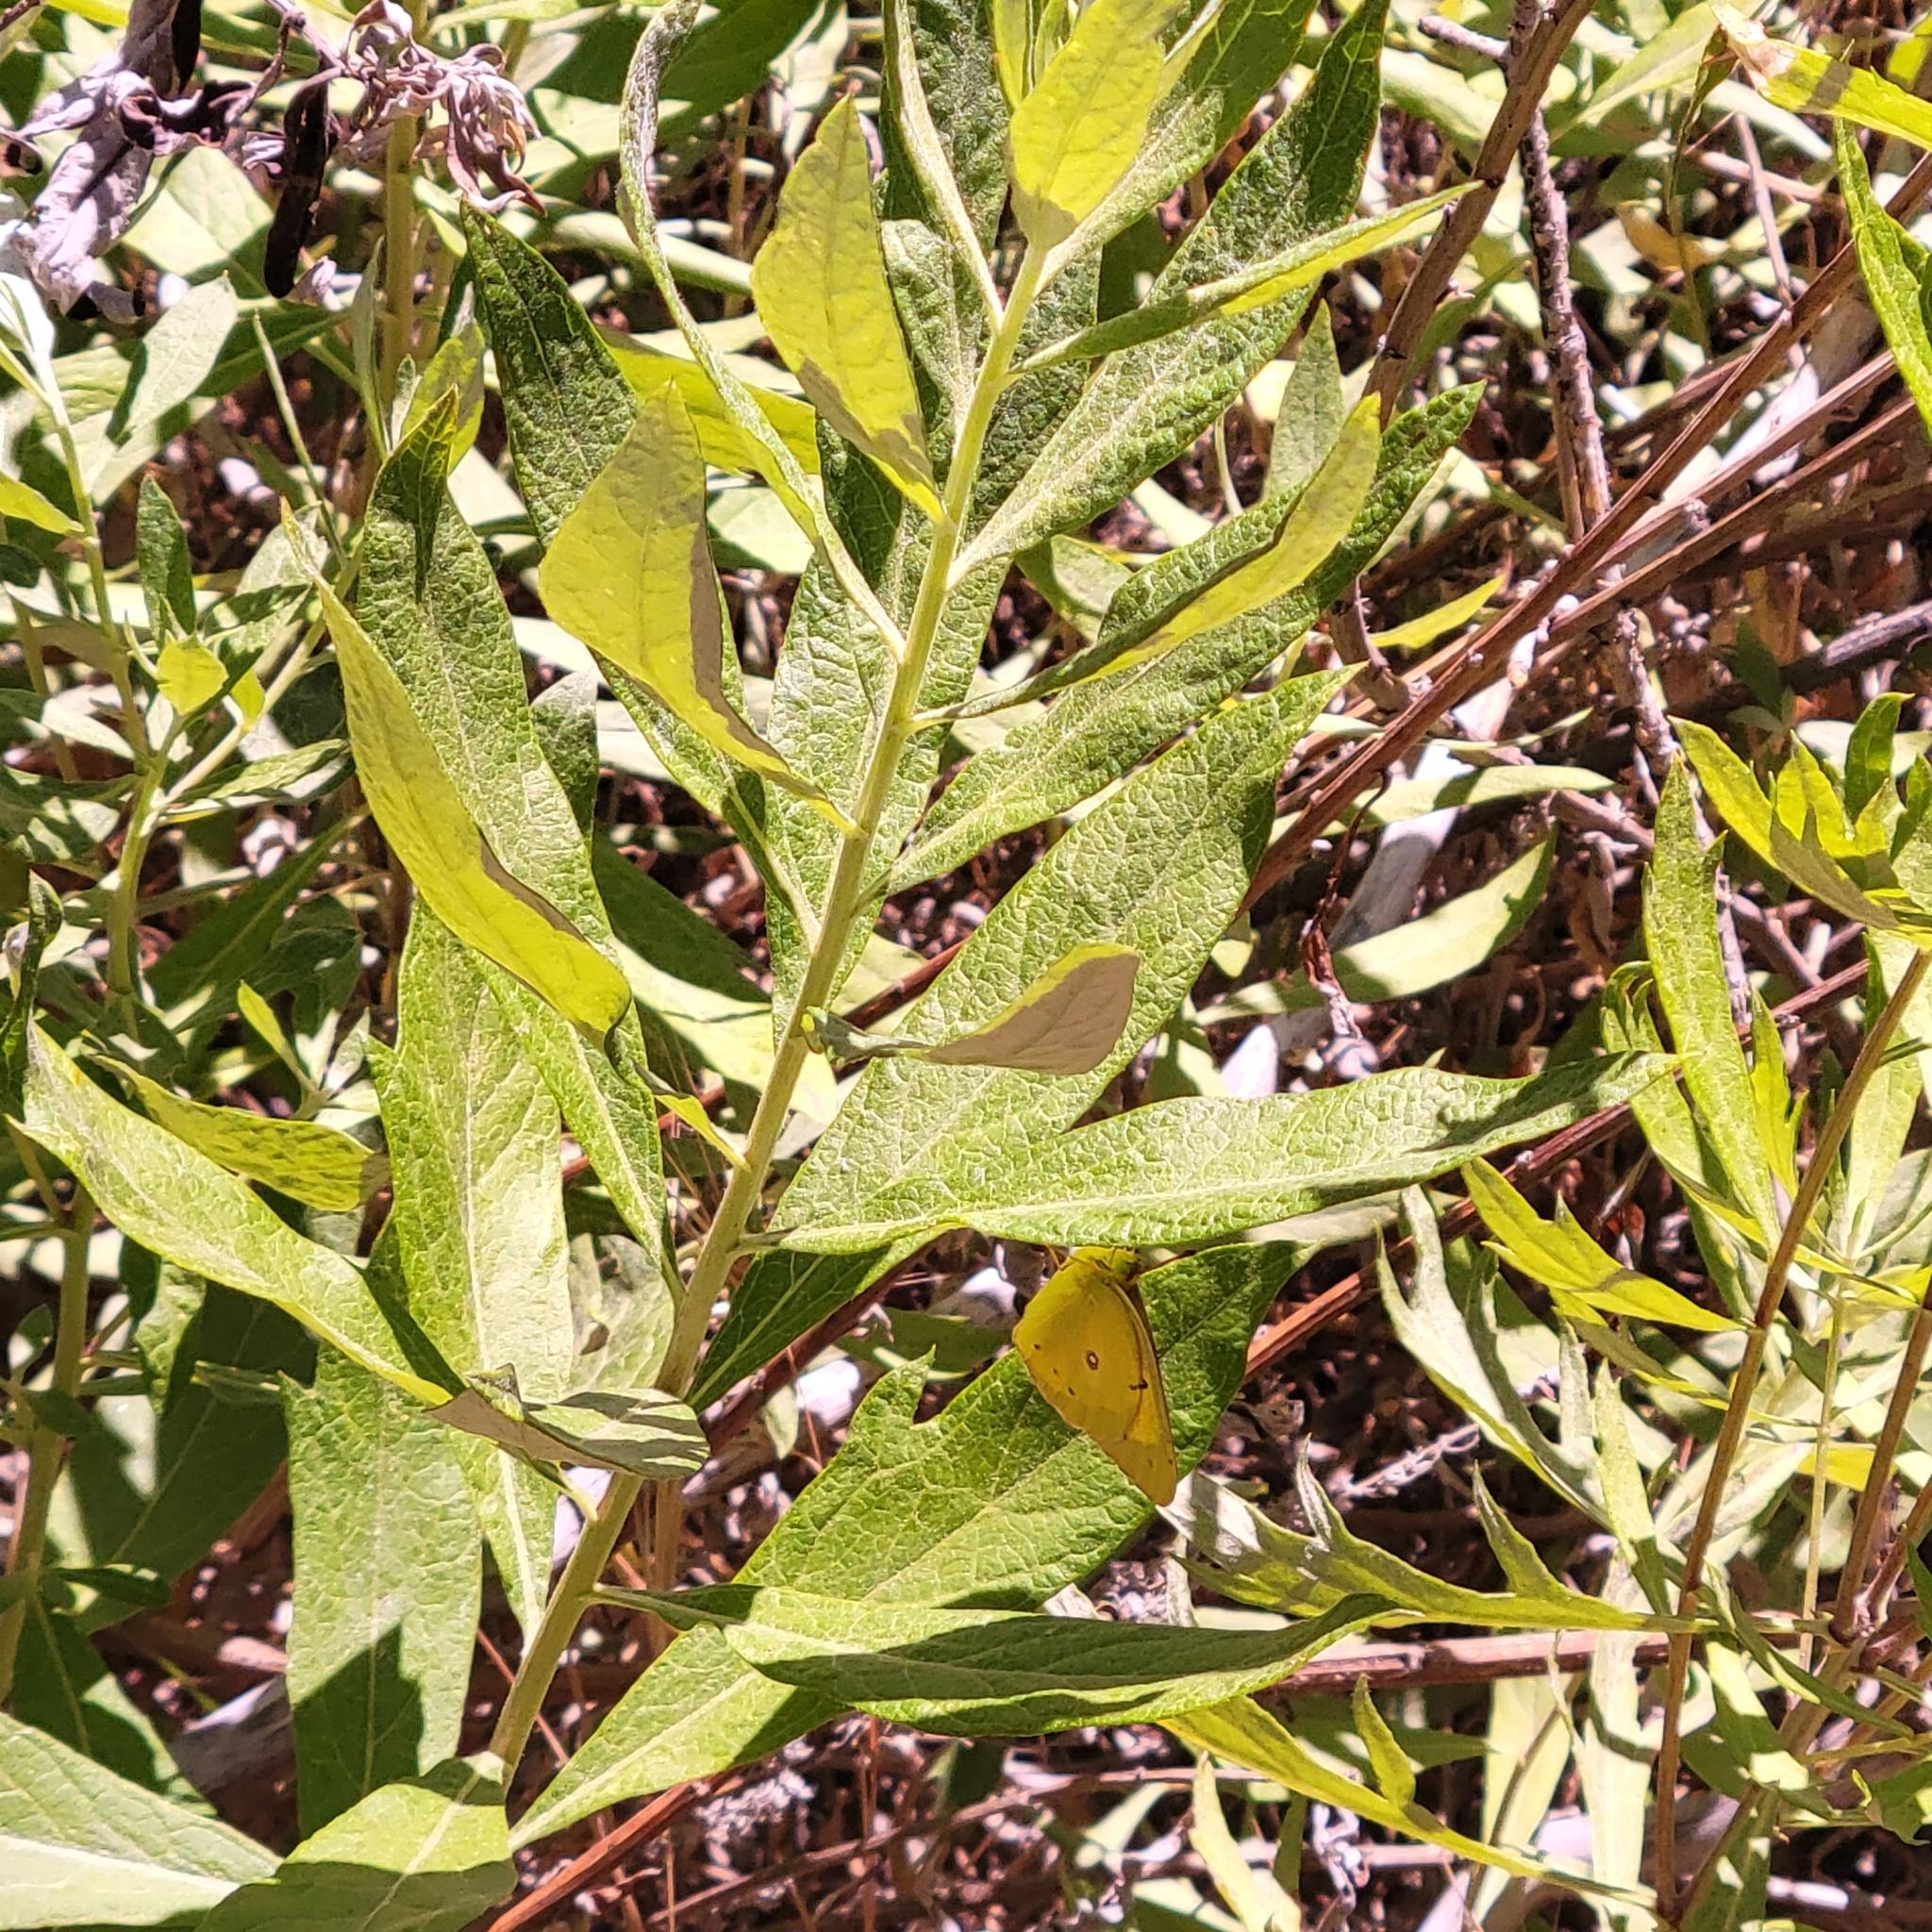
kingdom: Plantae
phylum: Tracheophyta
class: Magnoliopsida
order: Asterales
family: Asteraceae
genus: Artemisia
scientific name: Artemisia douglasiana
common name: Northwest mugwort
